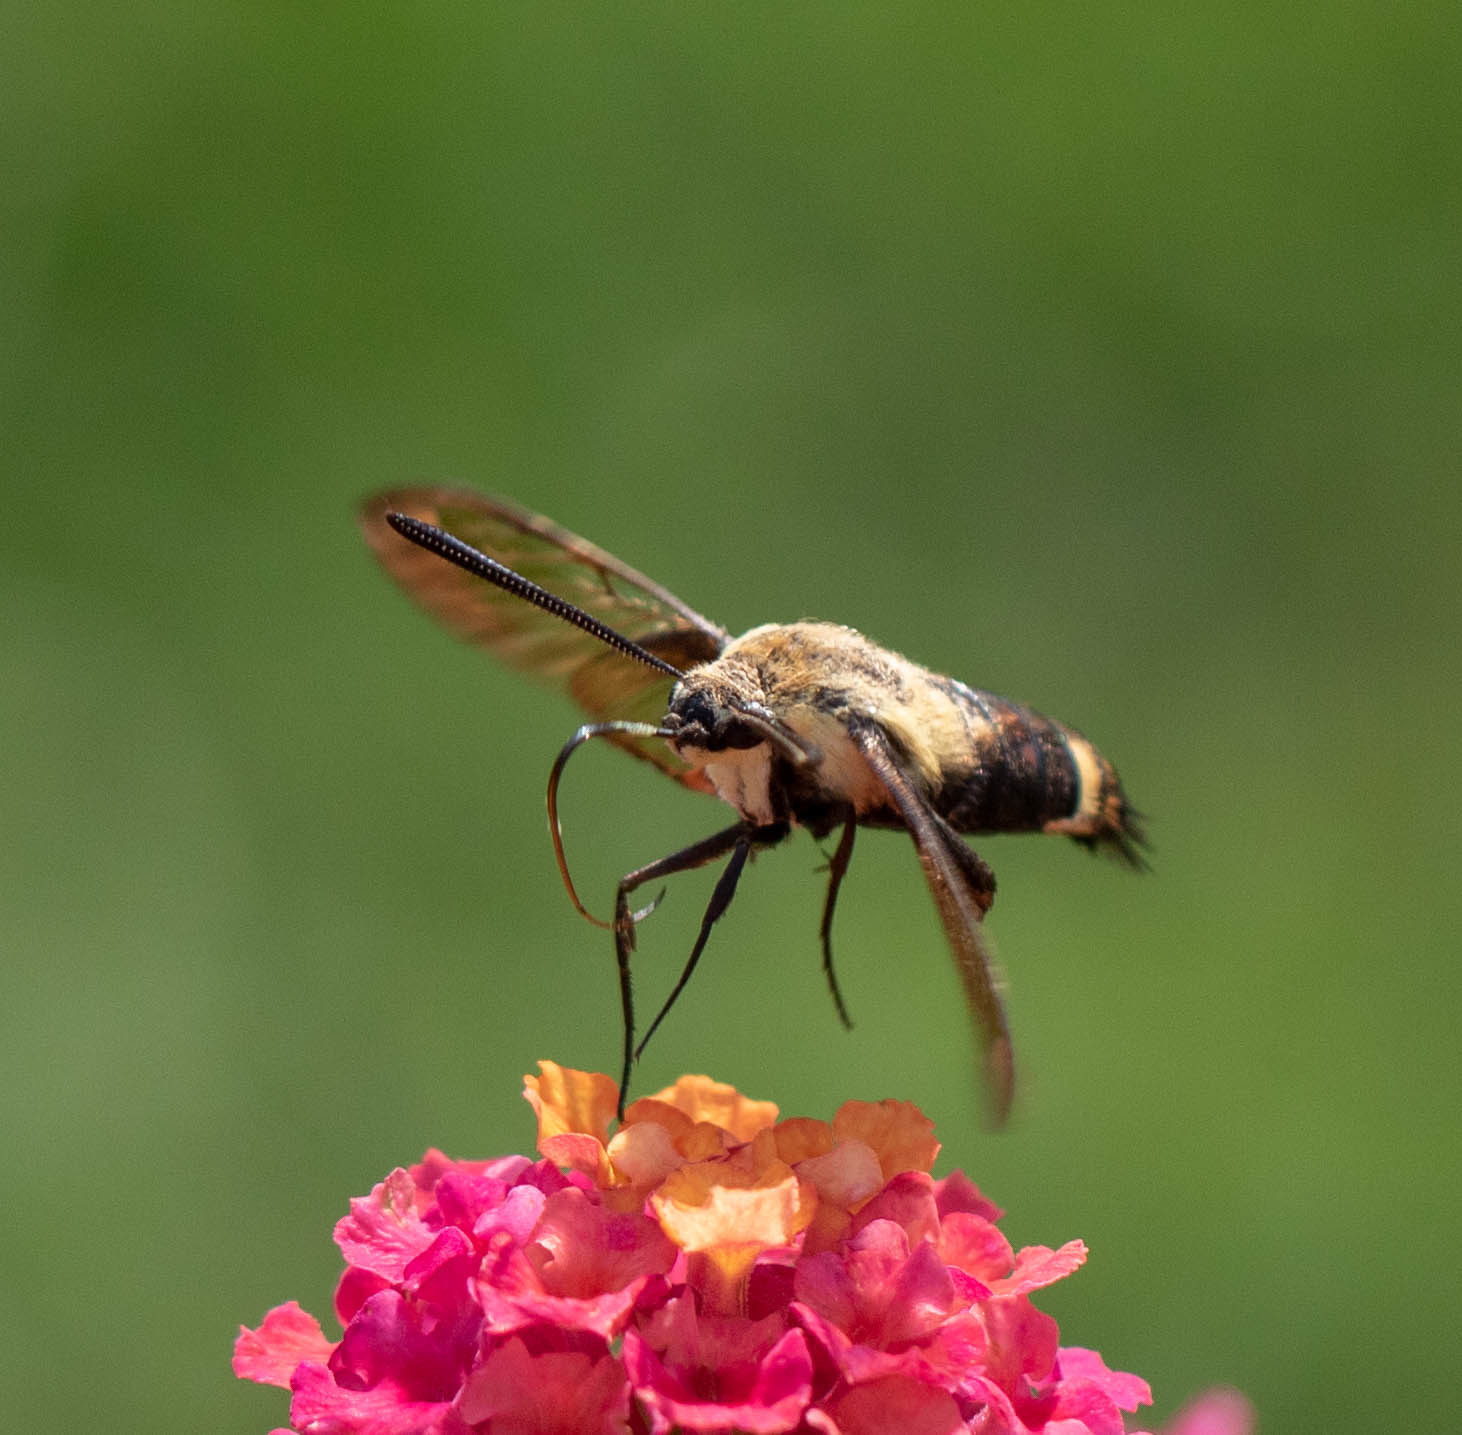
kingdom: Animalia
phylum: Arthropoda
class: Insecta
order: Lepidoptera
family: Sphingidae
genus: Hemaris
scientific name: Hemaris diffinis
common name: Bumblebee moth
